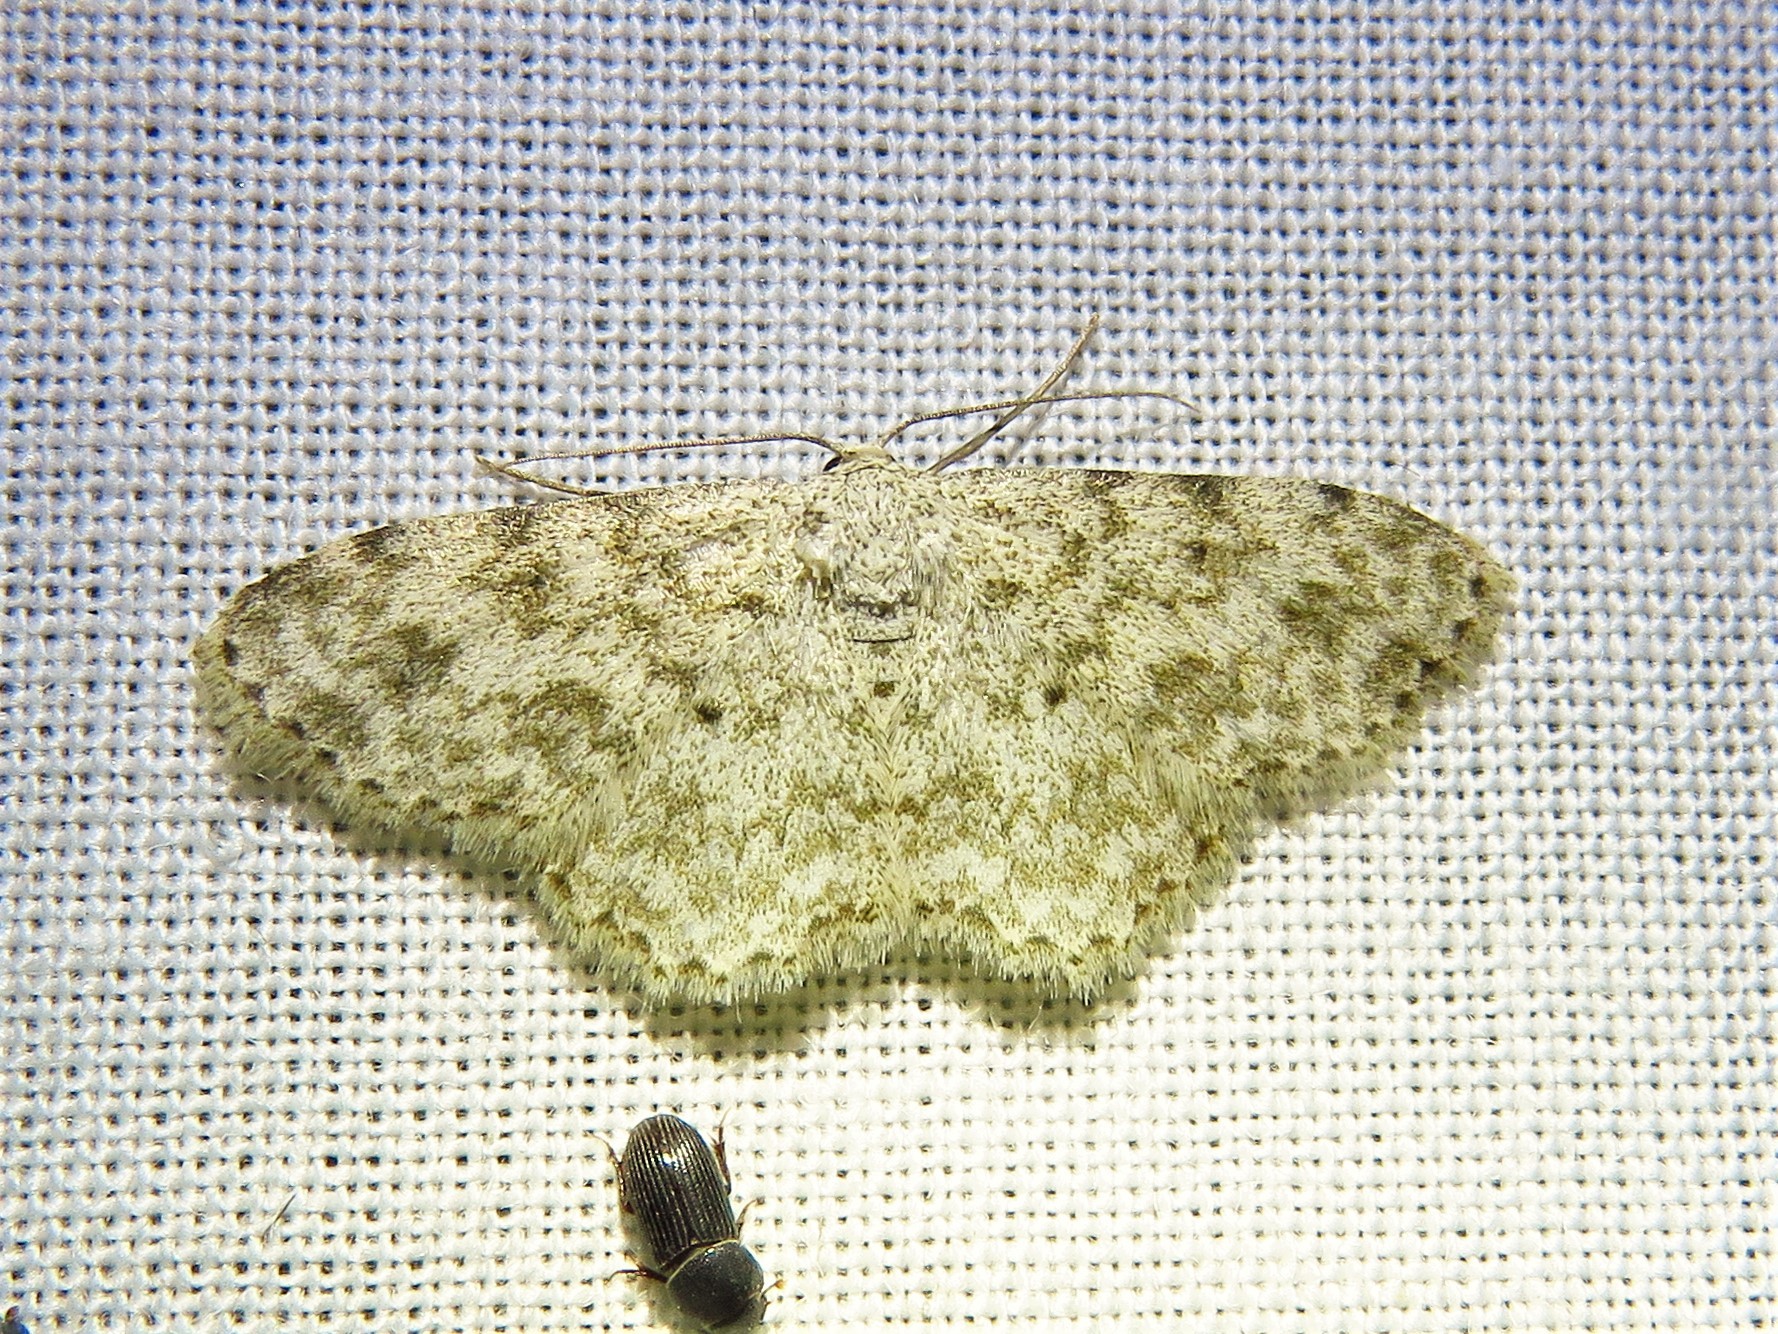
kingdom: Animalia
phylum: Arthropoda
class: Insecta
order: Lepidoptera
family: Geometridae
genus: Scopula
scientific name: Scopula plantagenaria
